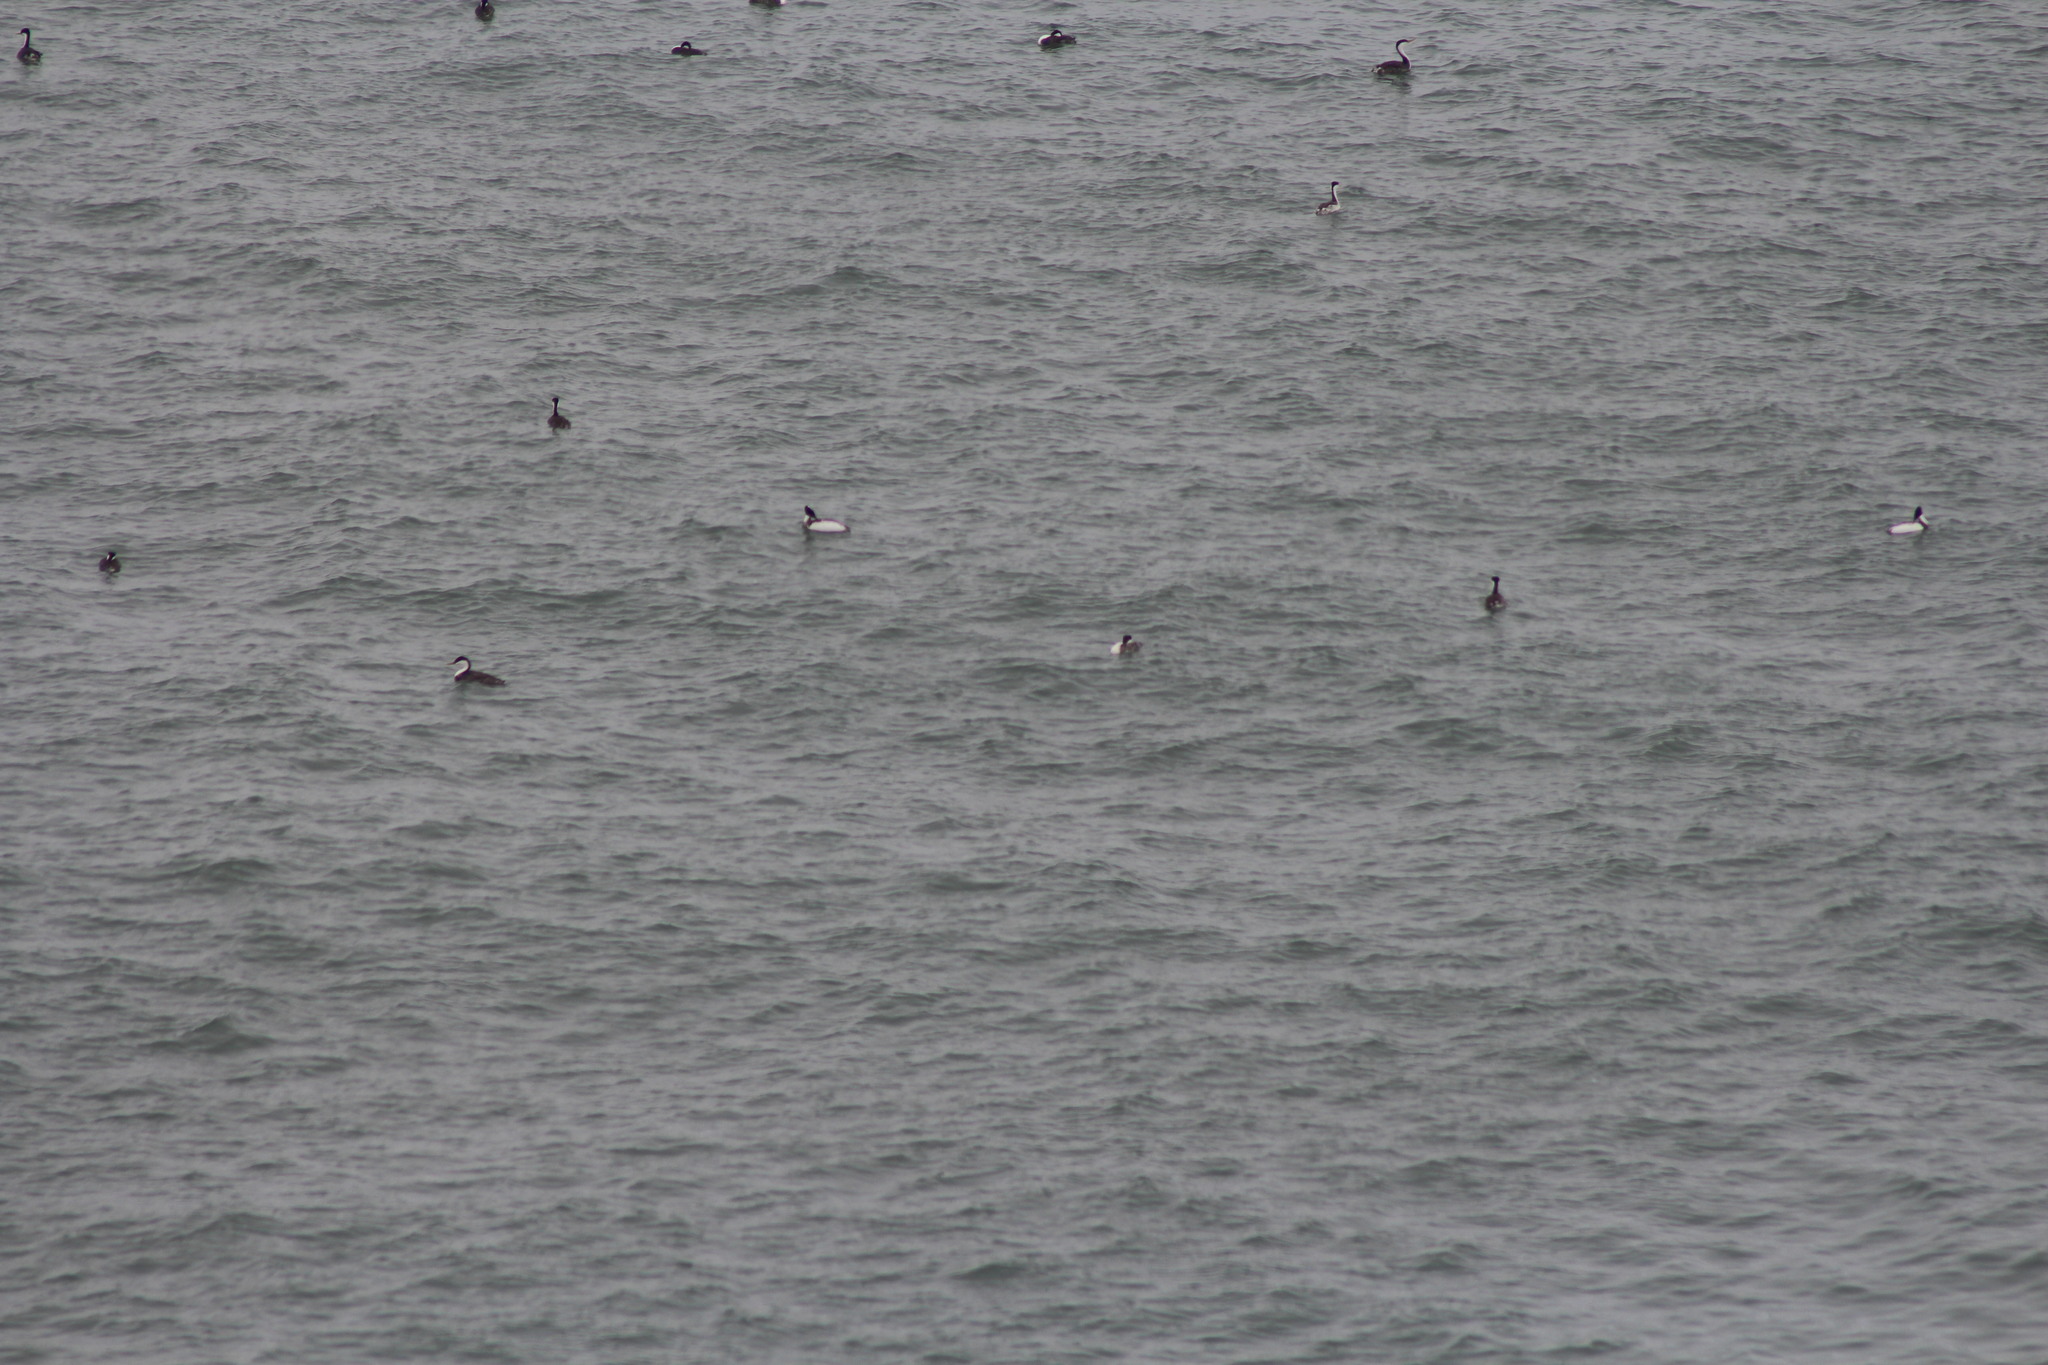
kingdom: Animalia
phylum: Chordata
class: Aves
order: Podicipediformes
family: Podicipedidae
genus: Aechmophorus
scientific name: Aechmophorus occidentalis
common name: Western grebe
